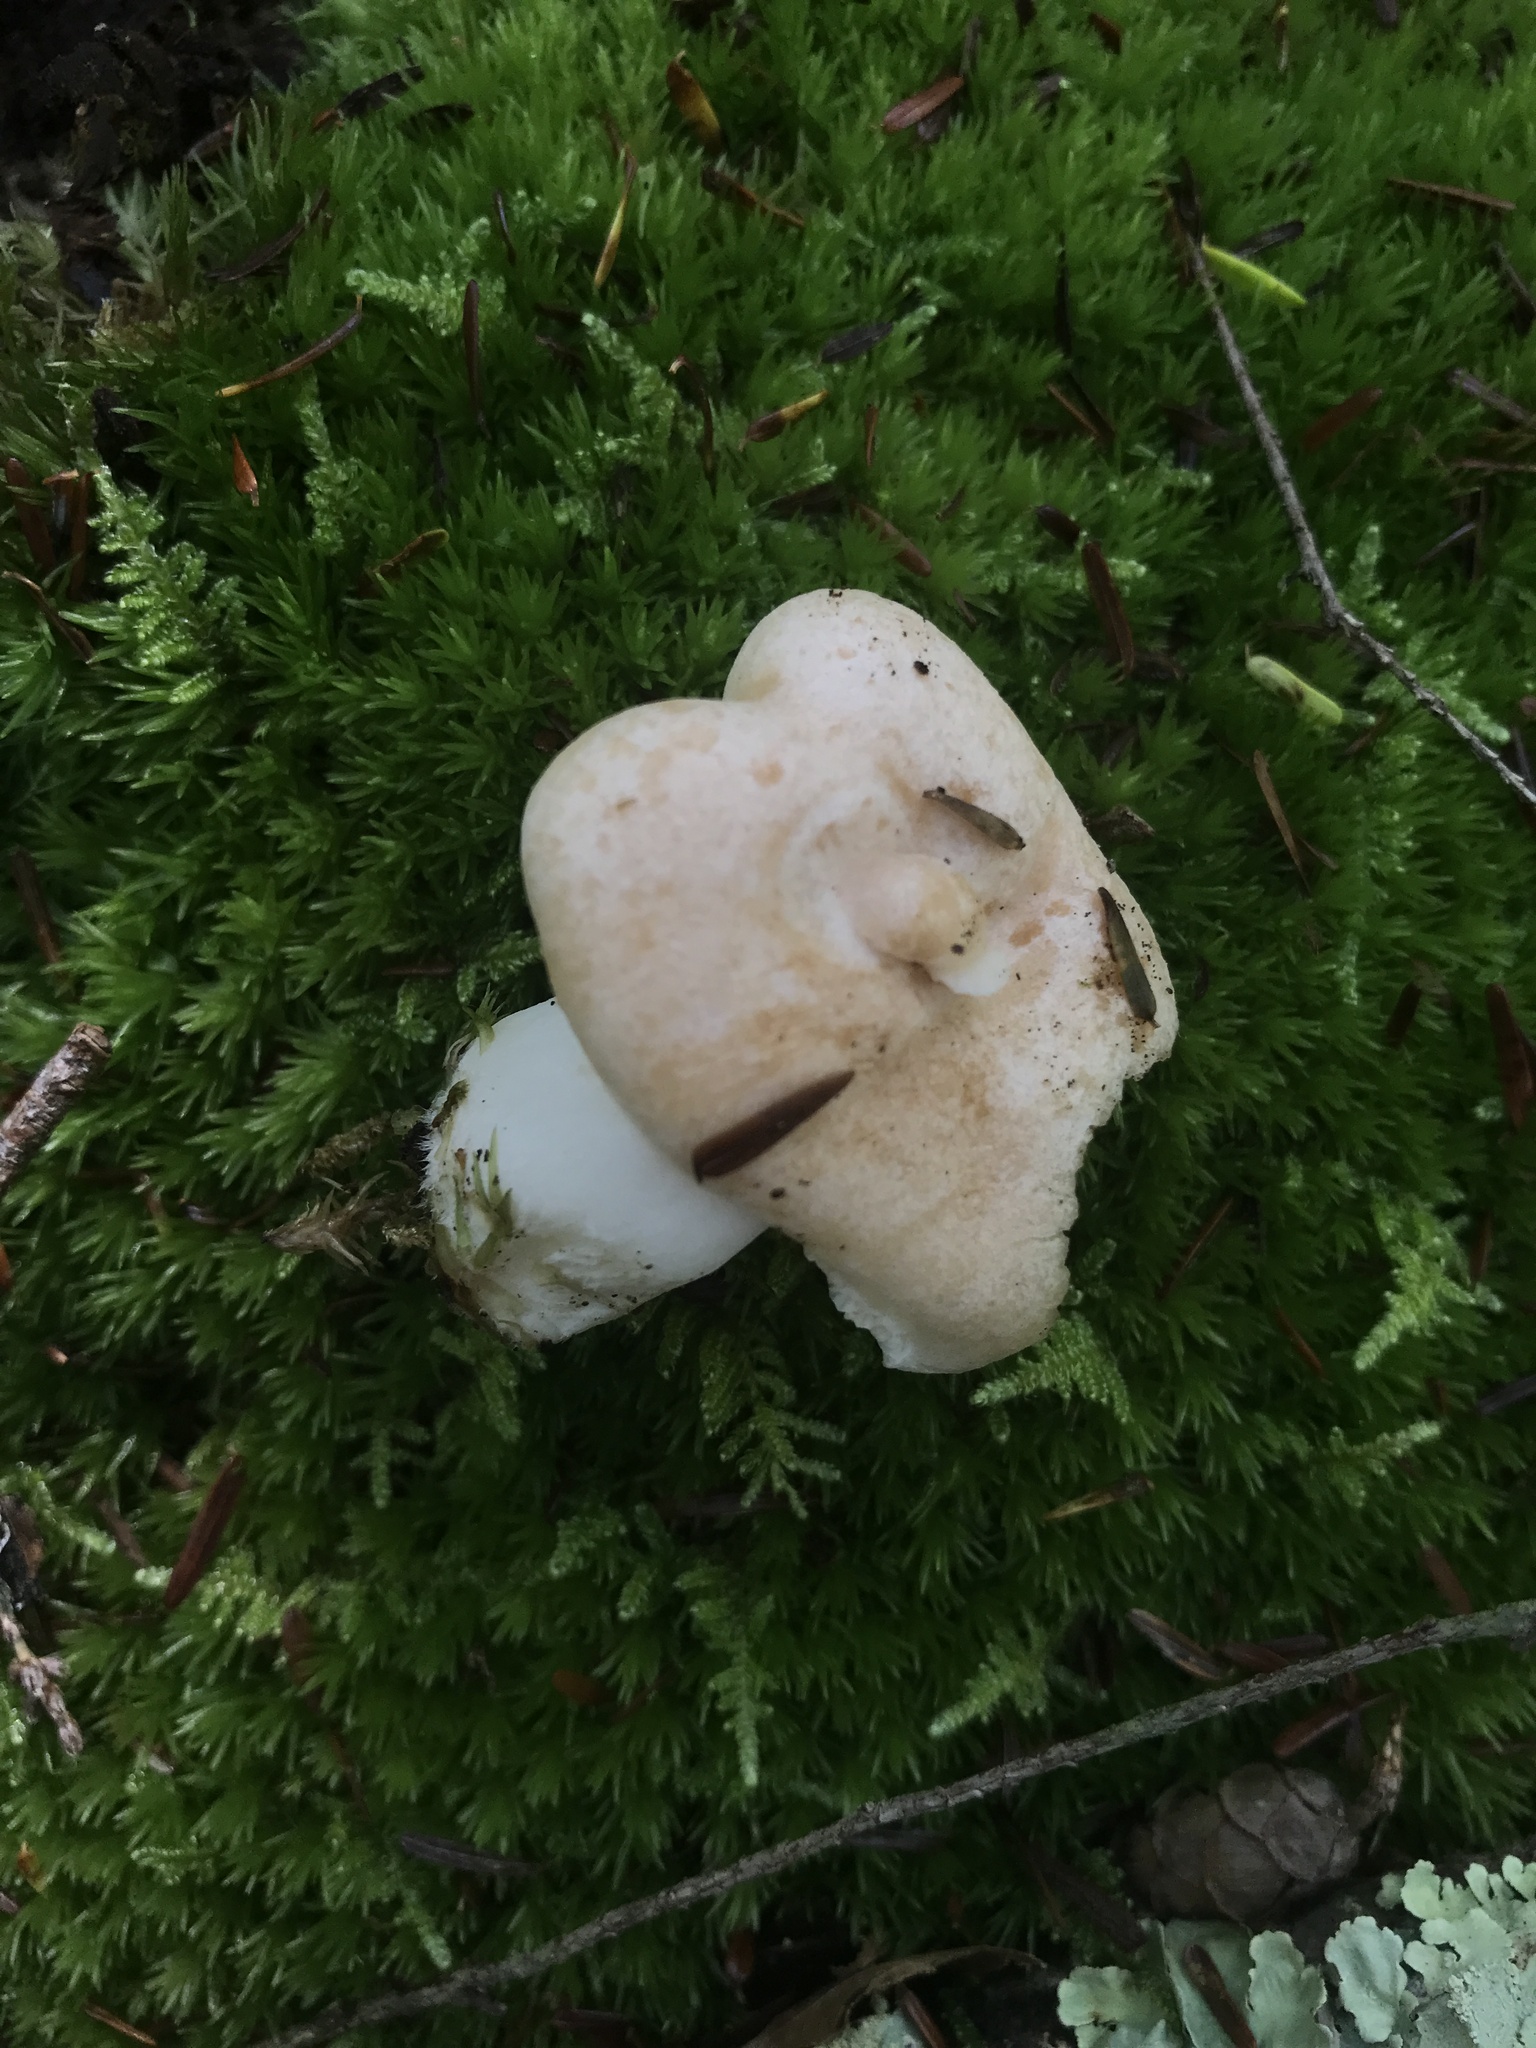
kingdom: Fungi
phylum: Basidiomycota
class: Agaricomycetes
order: Russulales
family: Russulaceae
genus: Lactarius
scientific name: Lactarius chrysorrheus
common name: Yellowdrop milkcap
